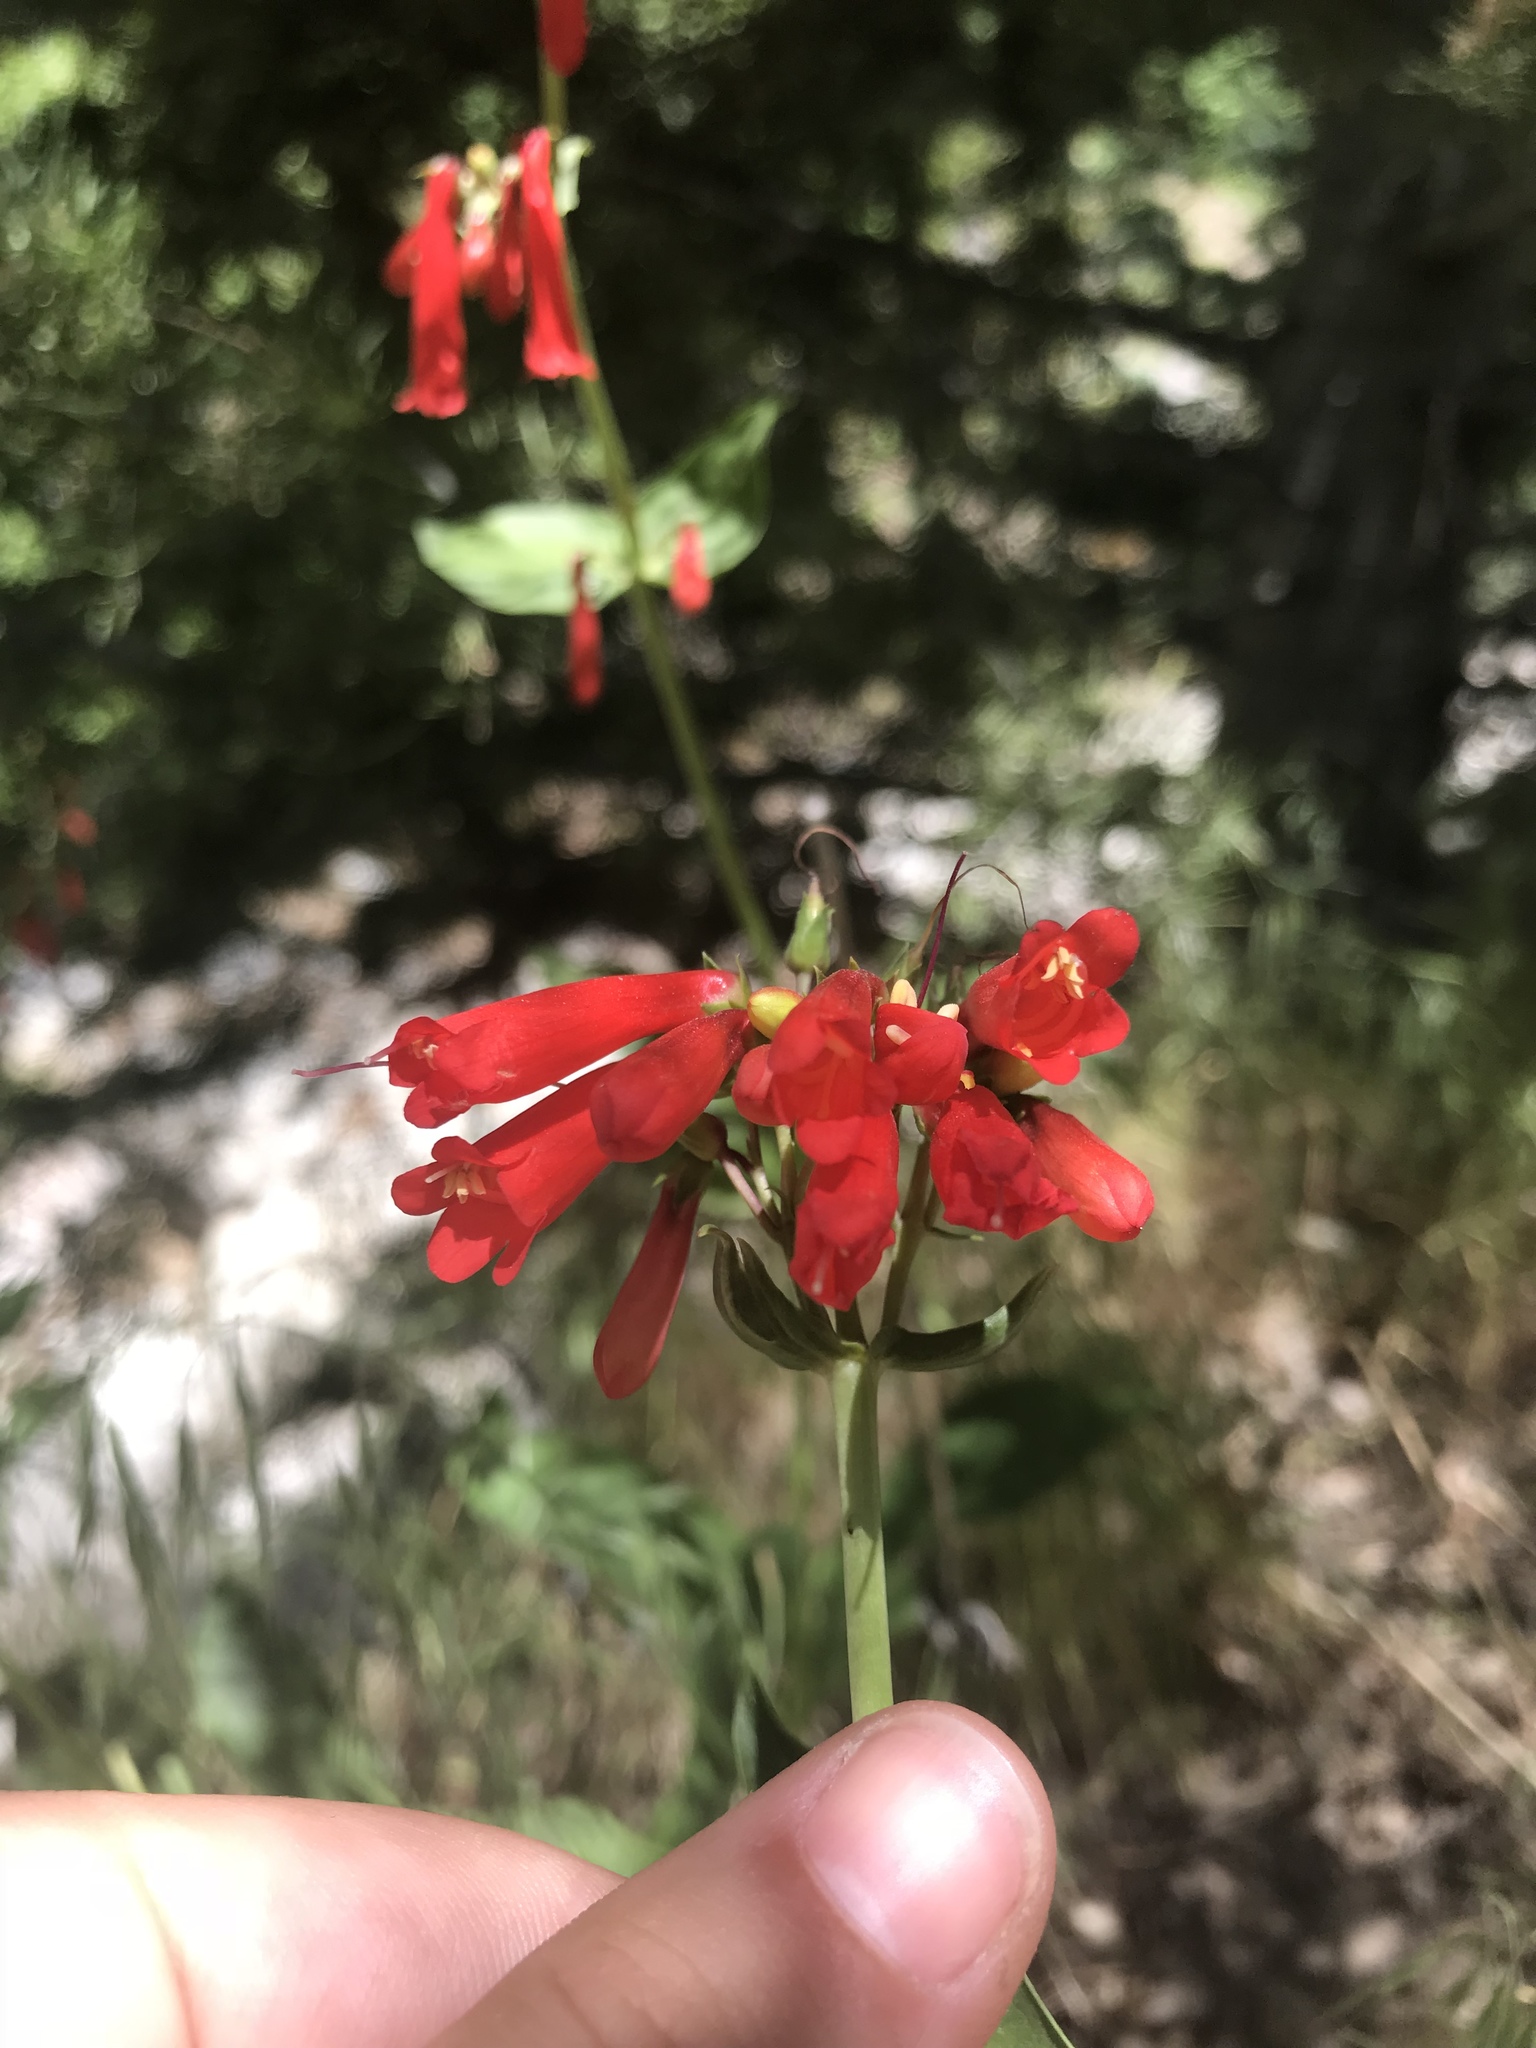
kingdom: Plantae
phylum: Tracheophyta
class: Magnoliopsida
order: Lamiales
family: Plantaginaceae
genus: Penstemon
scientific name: Penstemon eatonii
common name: Eaton's penstemon
